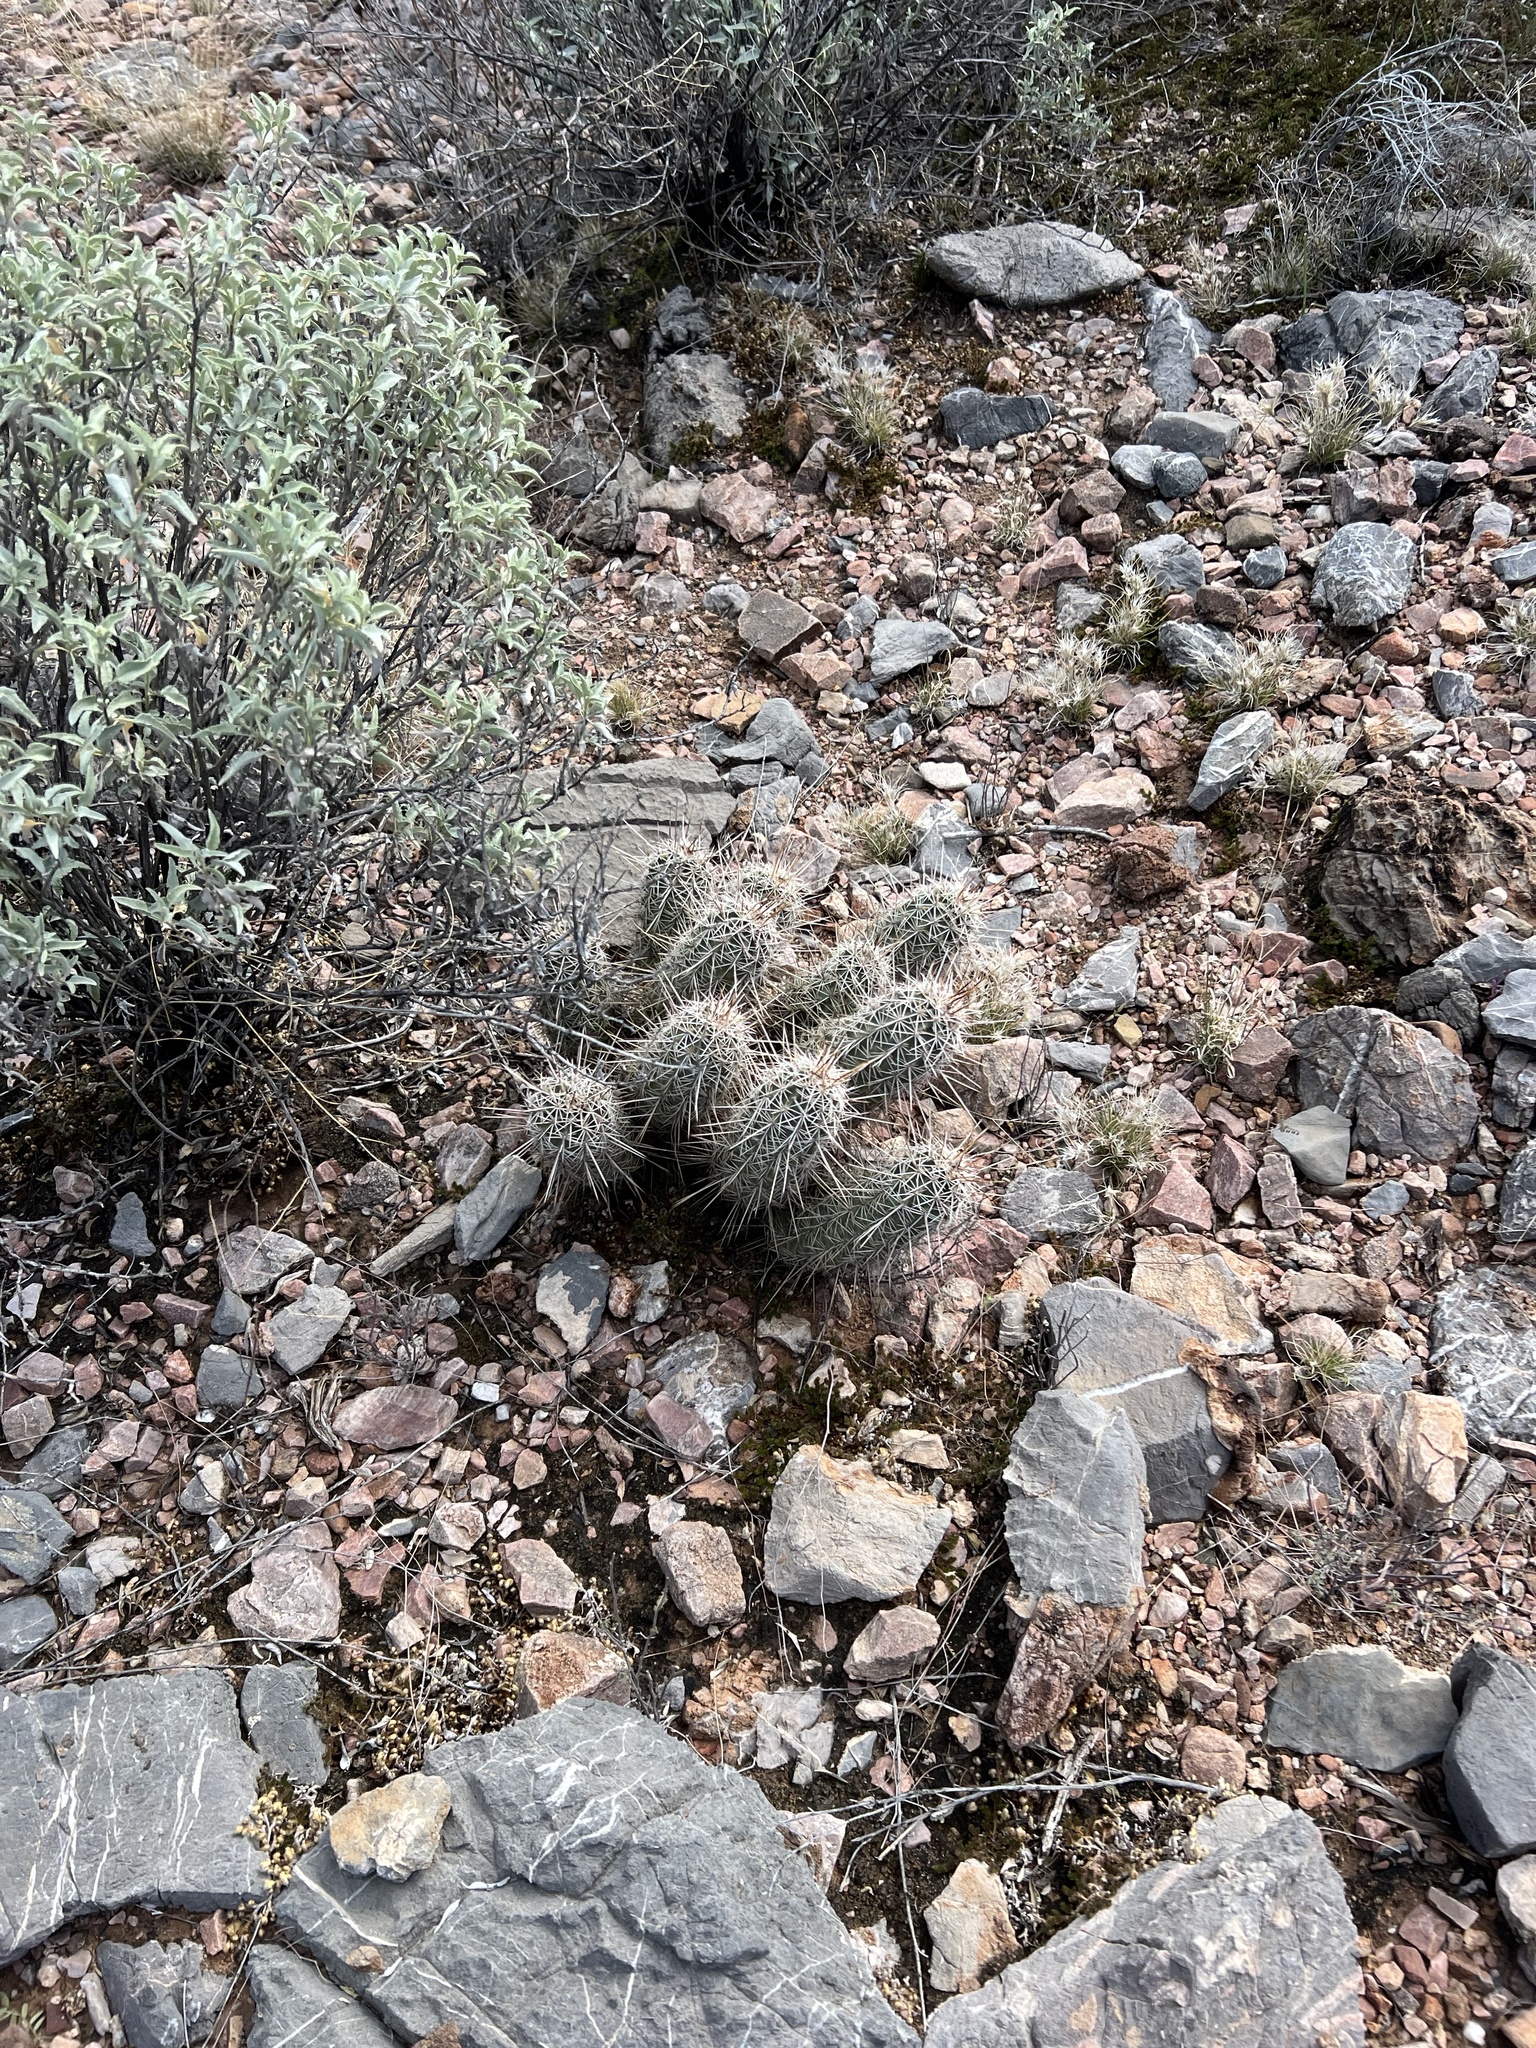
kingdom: Plantae
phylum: Tracheophyta
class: Magnoliopsida
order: Caryophyllales
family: Cactaceae
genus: Echinocereus
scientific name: Echinocereus fasciculatus
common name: Bundle hedgehog
